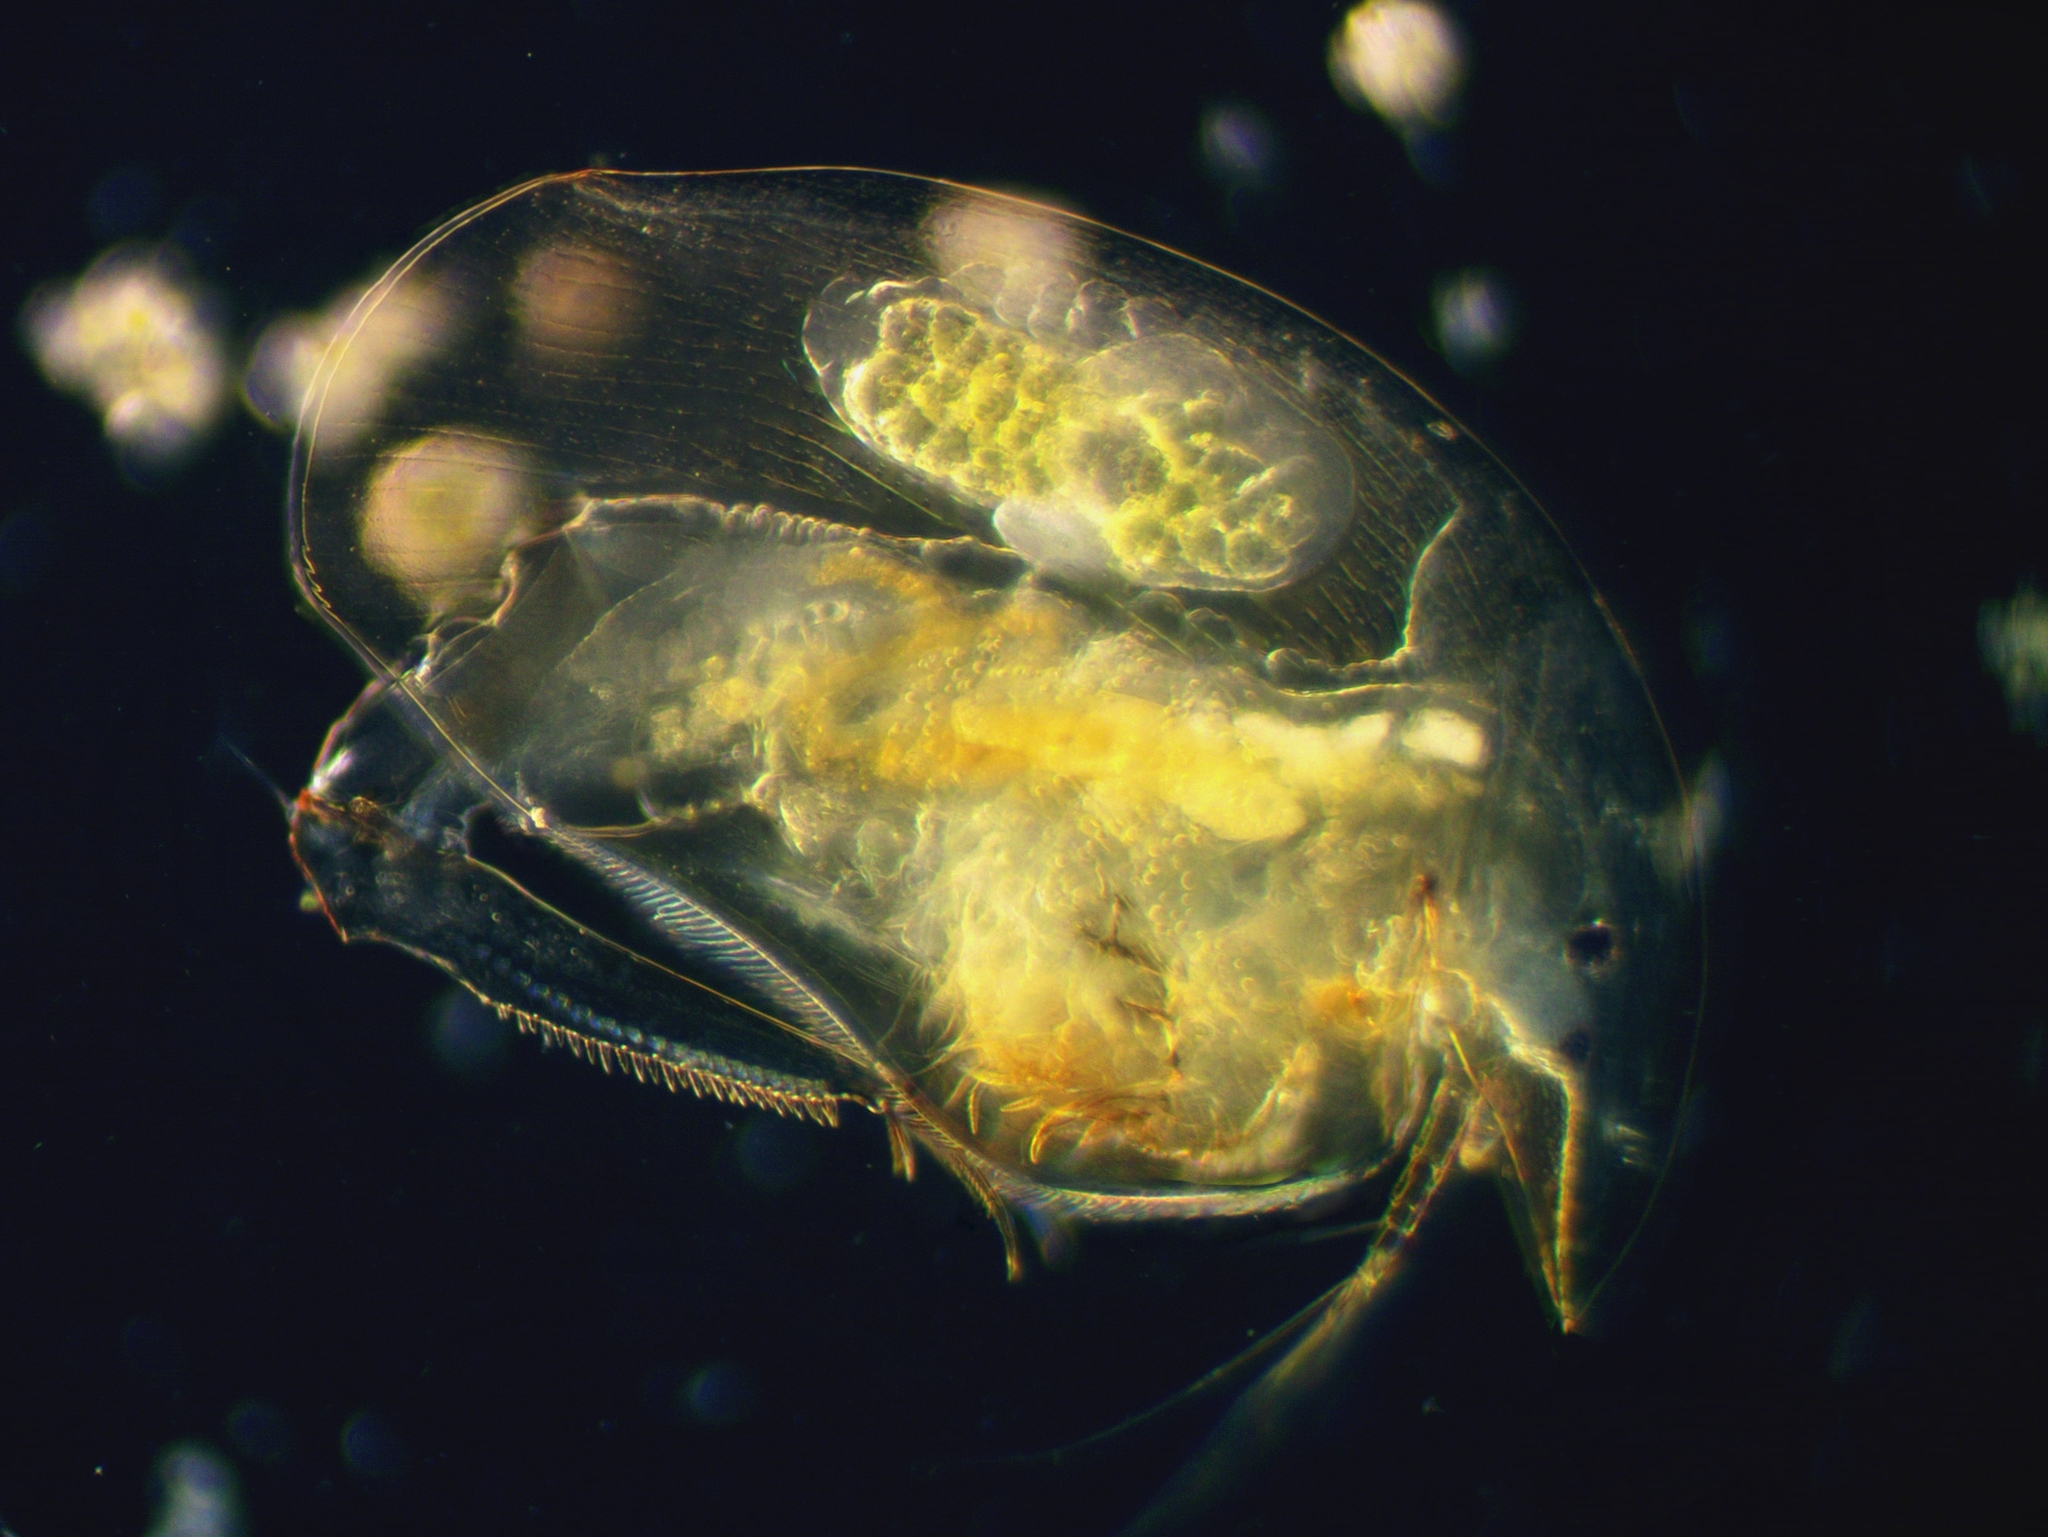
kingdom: Animalia
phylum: Arthropoda
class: Branchiopoda
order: Diplostraca
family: Chydoridae
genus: Camptocercus
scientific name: Camptocercus rectirostris
